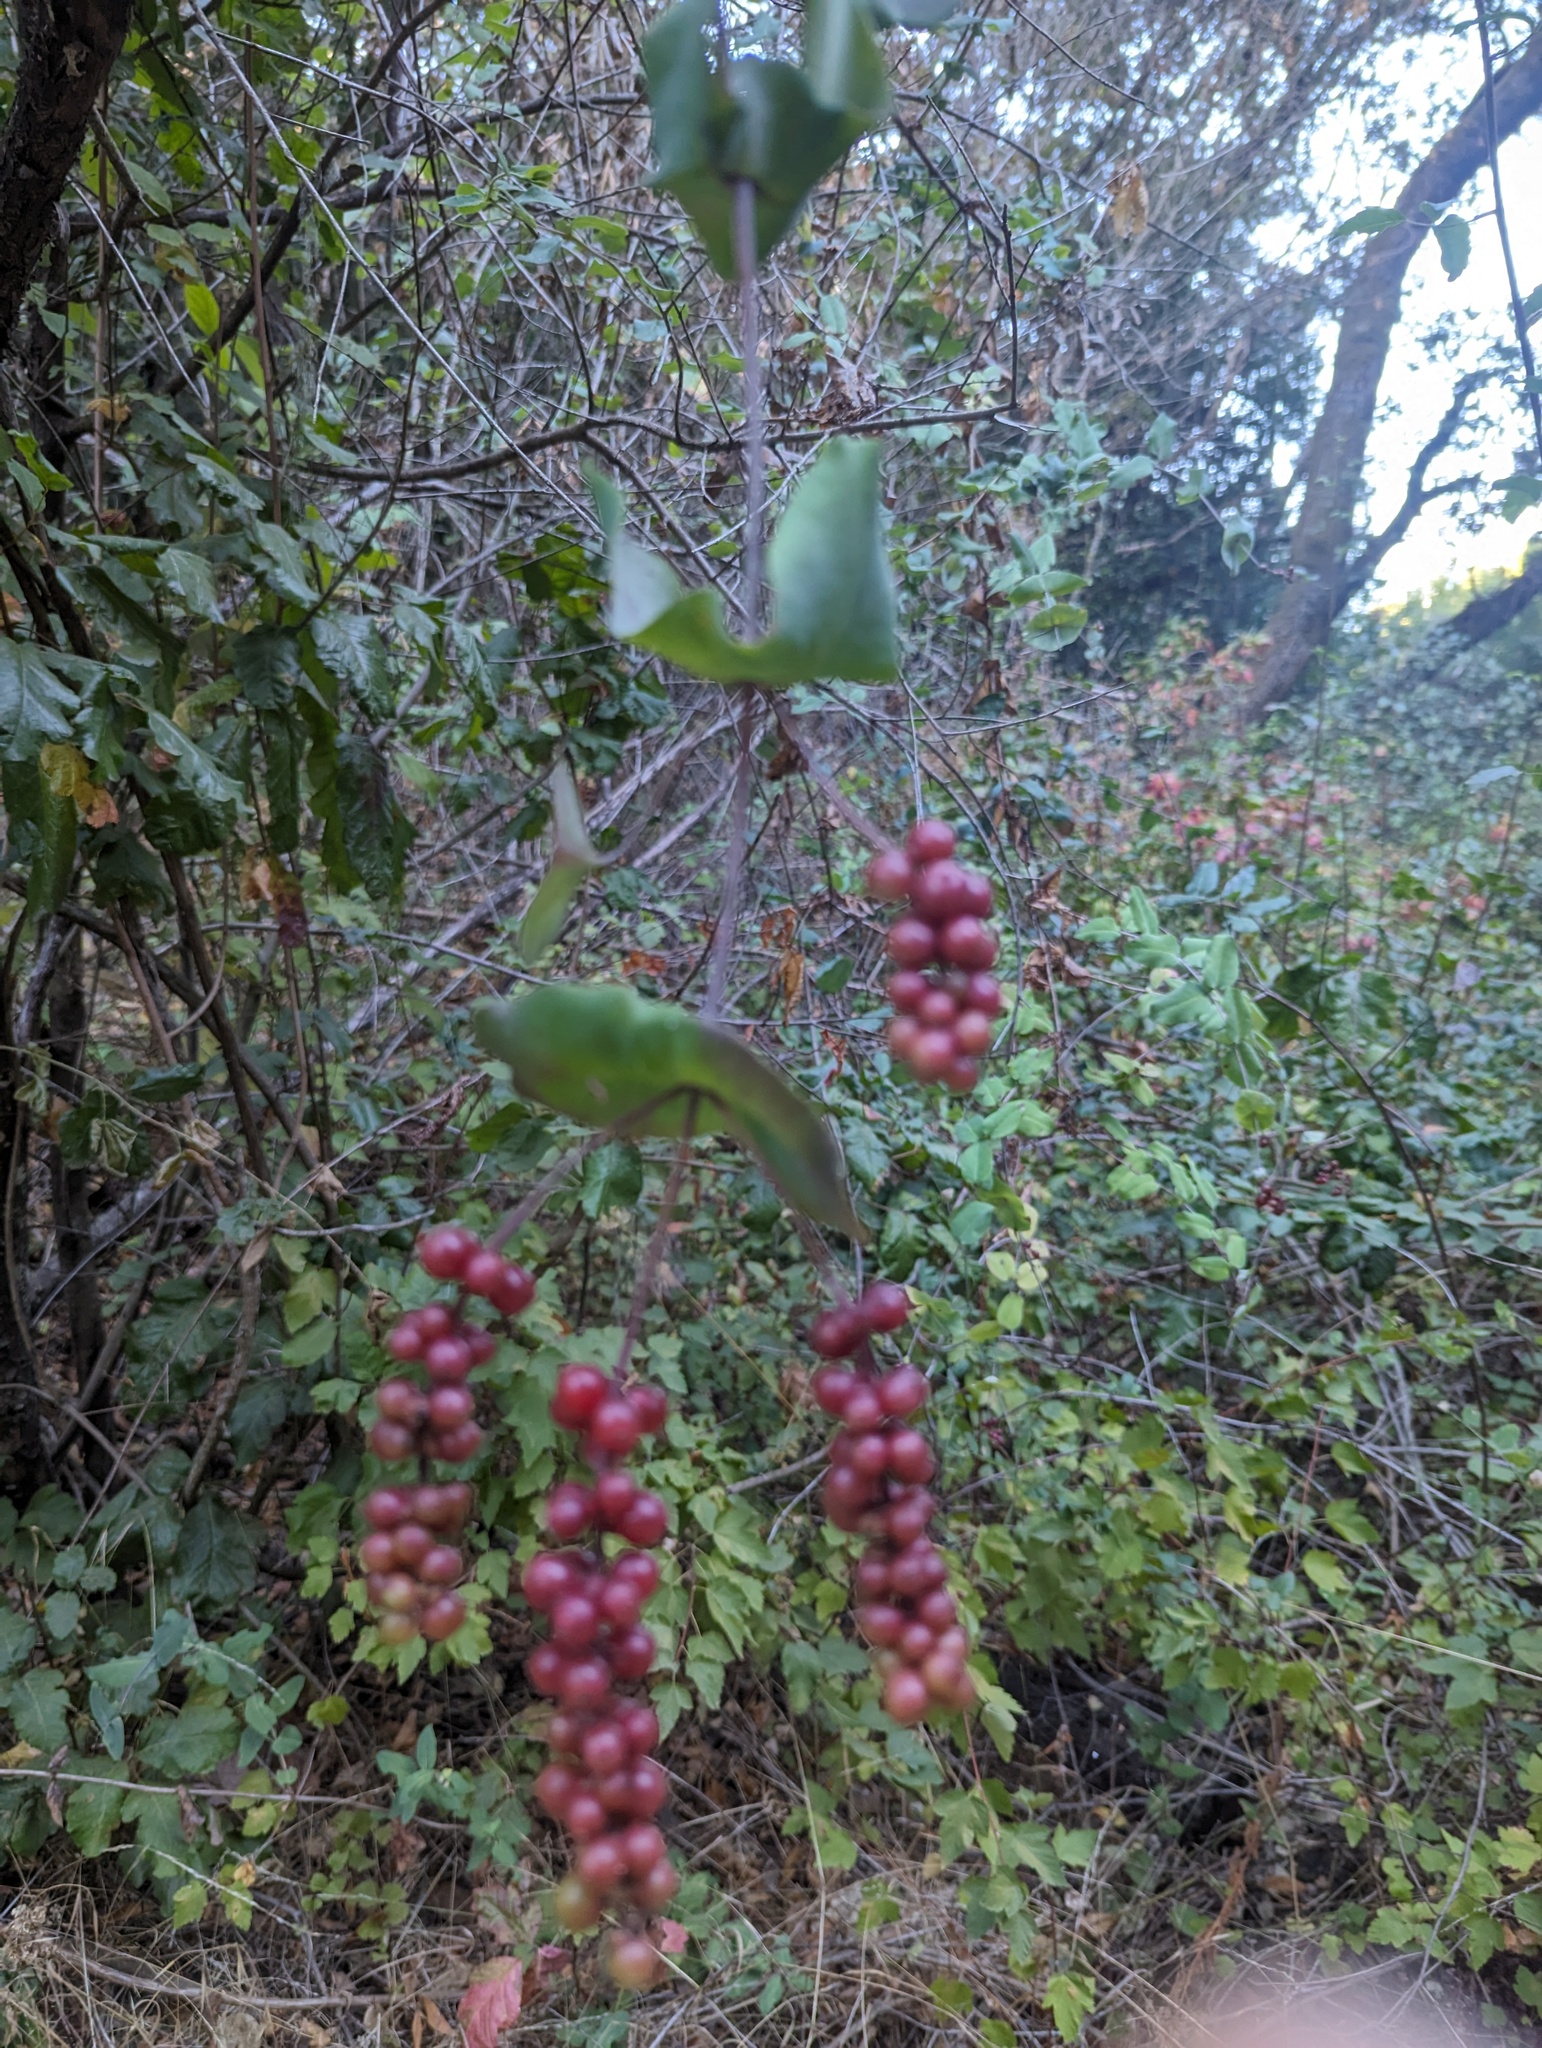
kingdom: Plantae
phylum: Tracheophyta
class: Magnoliopsida
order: Dipsacales
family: Caprifoliaceae
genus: Lonicera
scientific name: Lonicera hispidula
